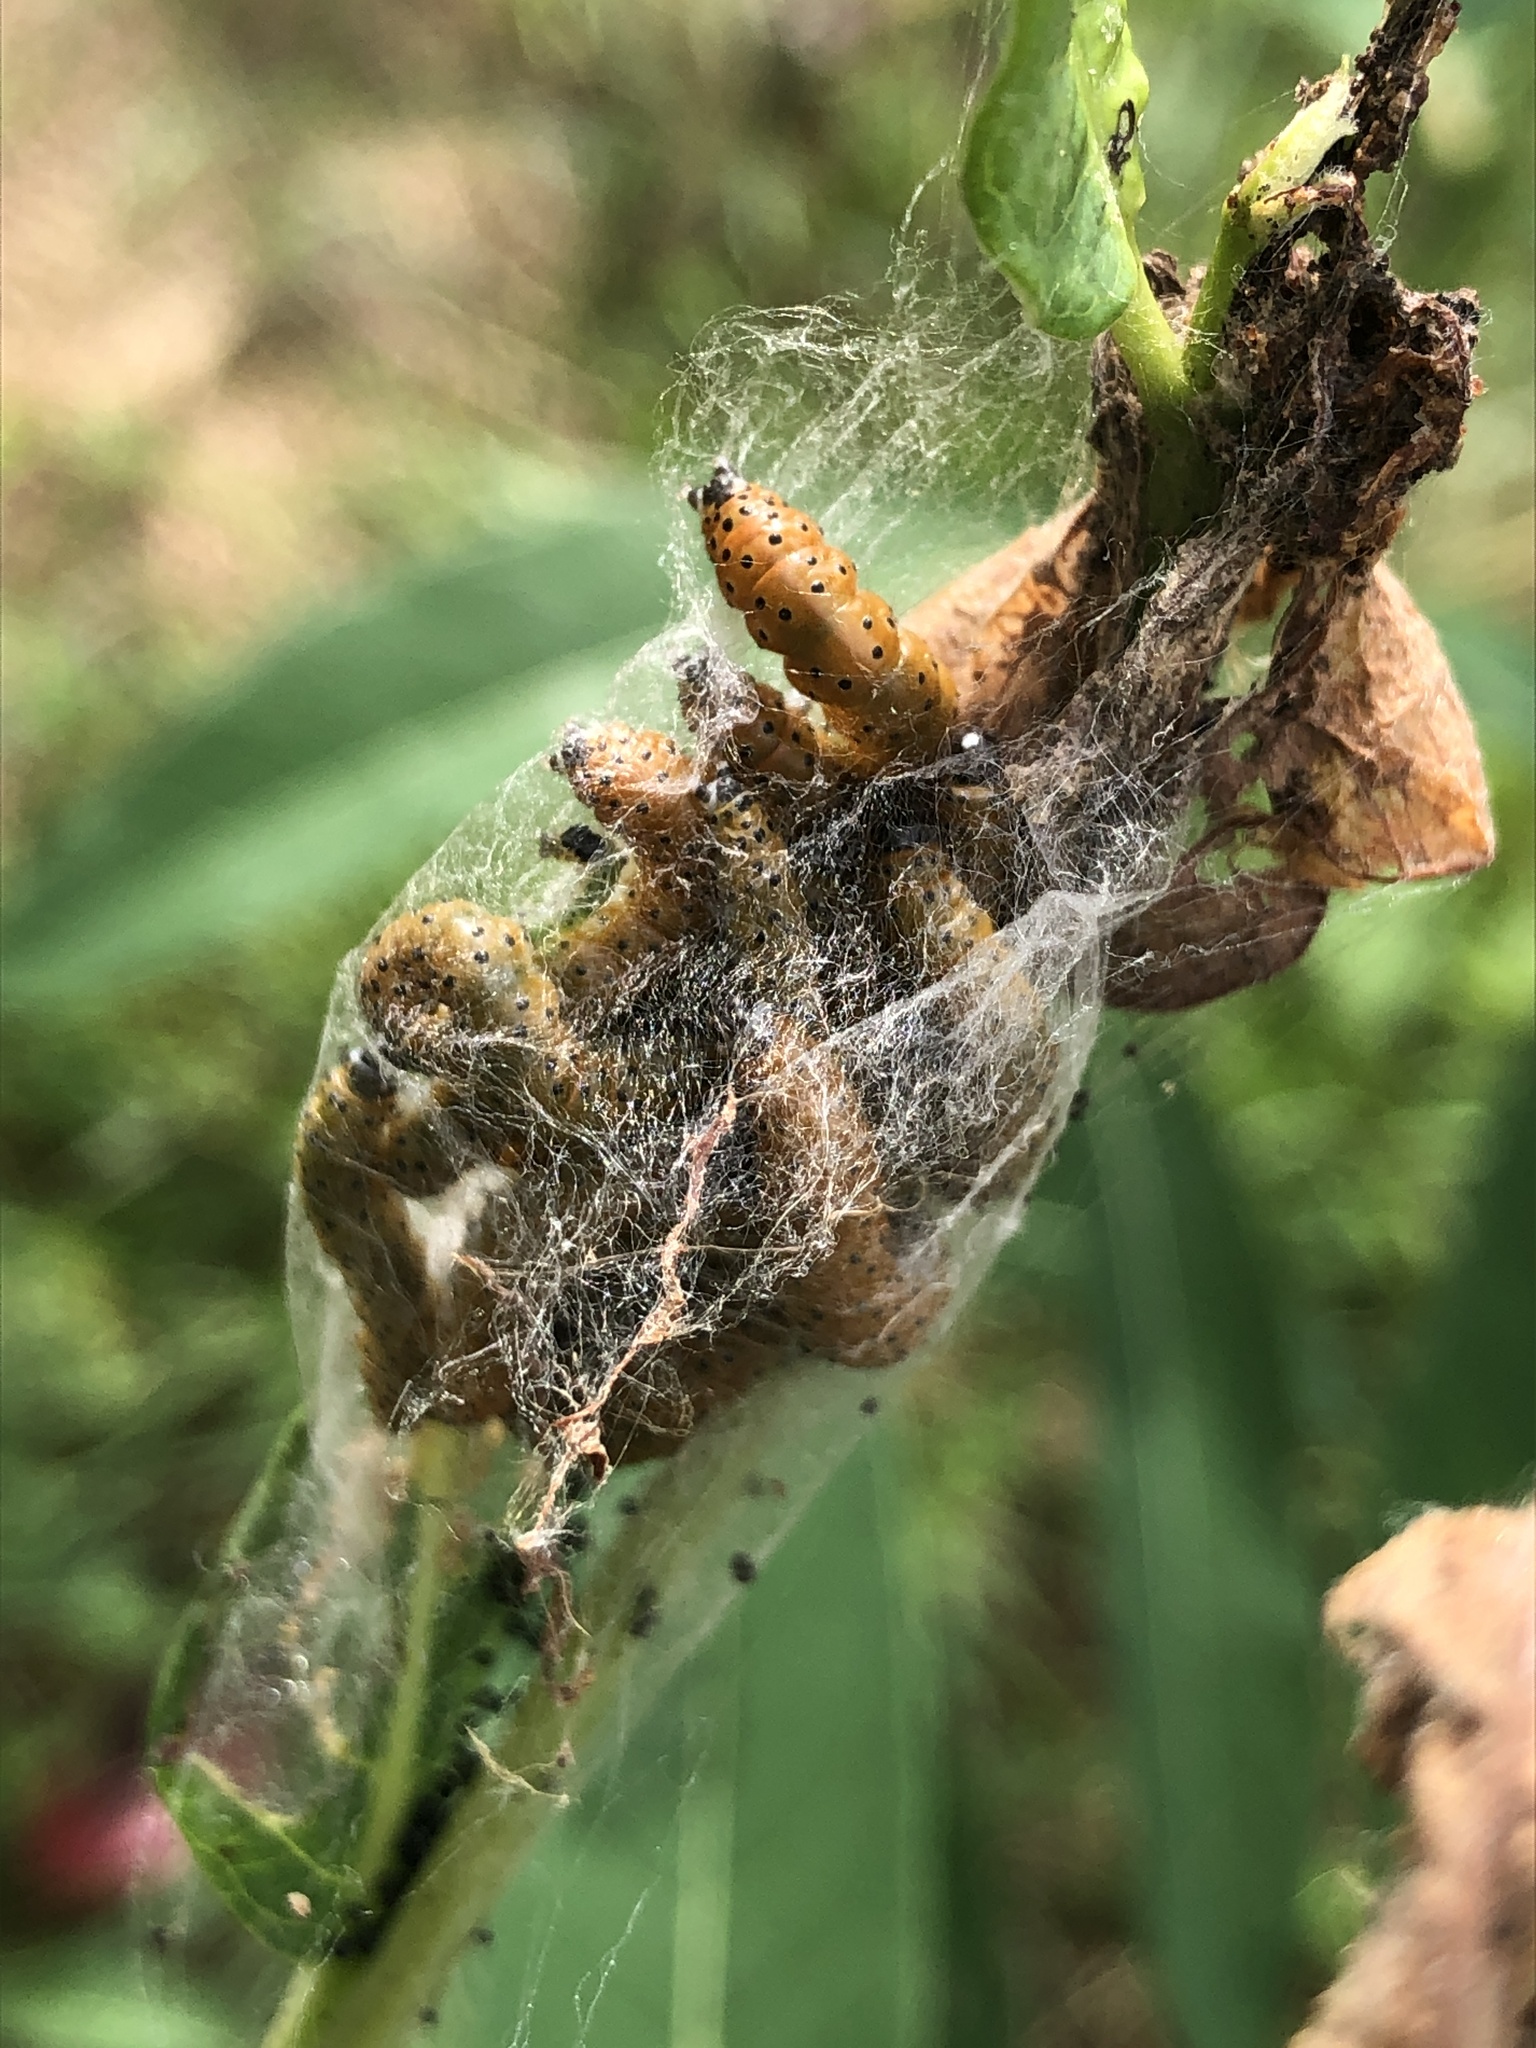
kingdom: Animalia
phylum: Arthropoda
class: Insecta
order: Lepidoptera
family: Crambidae
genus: Saucrobotys
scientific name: Saucrobotys futilalis
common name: Dogbane saucrobotys moth
